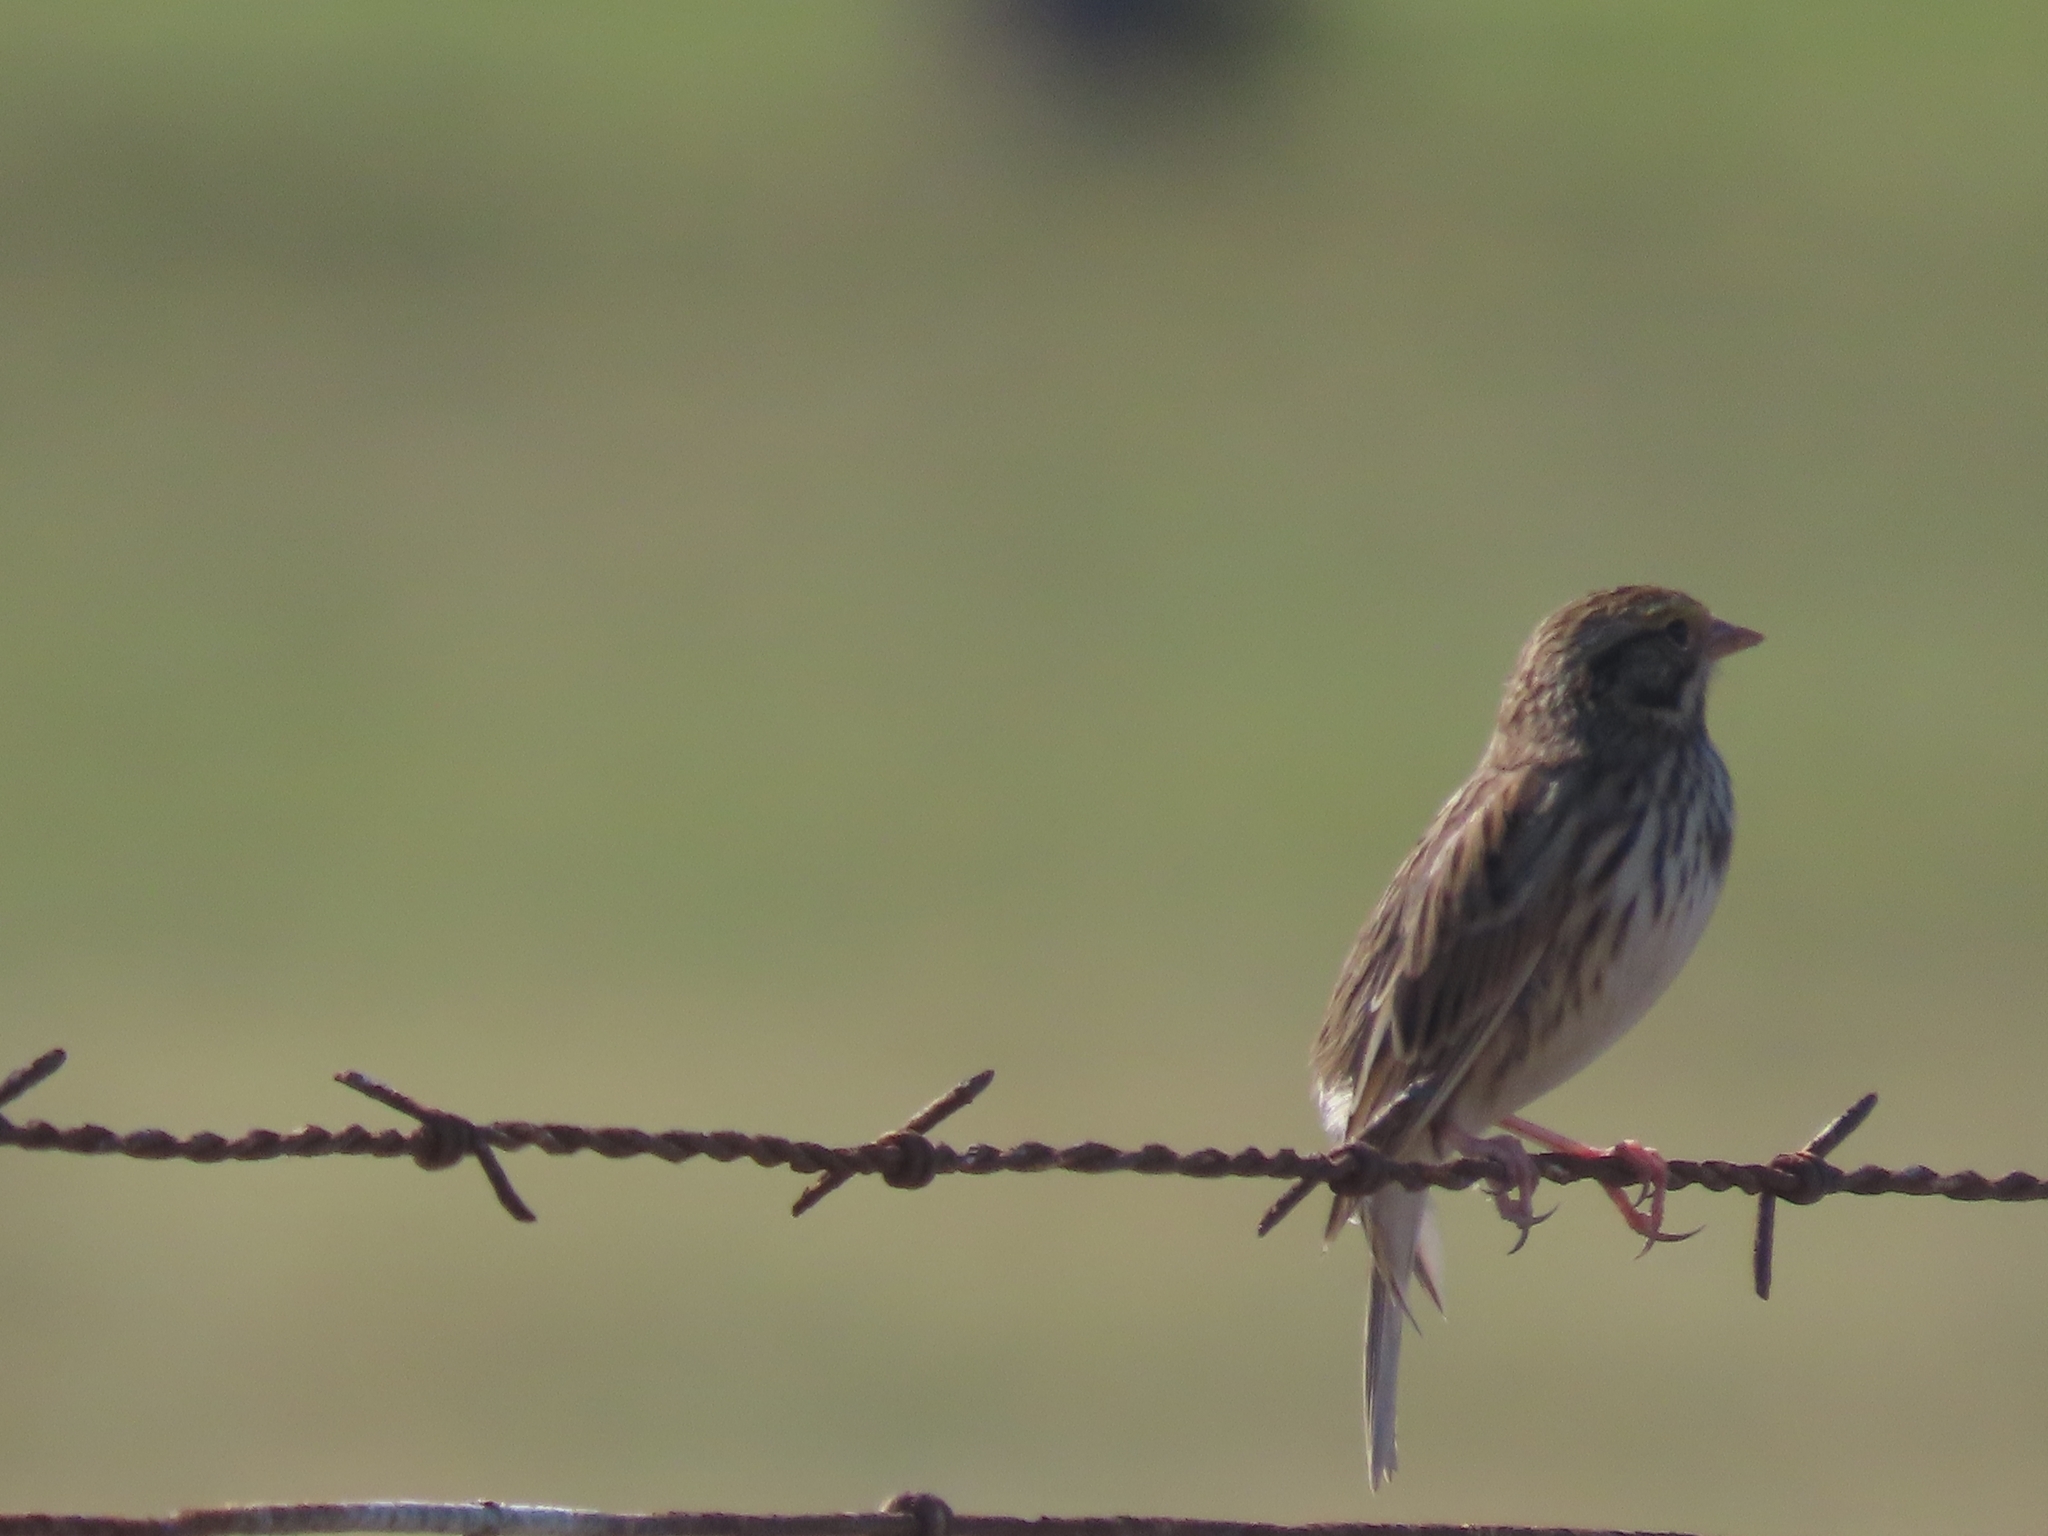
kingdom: Animalia
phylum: Chordata
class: Aves
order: Passeriformes
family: Passerellidae
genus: Passerculus
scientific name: Passerculus sandwichensis
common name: Savannah sparrow
